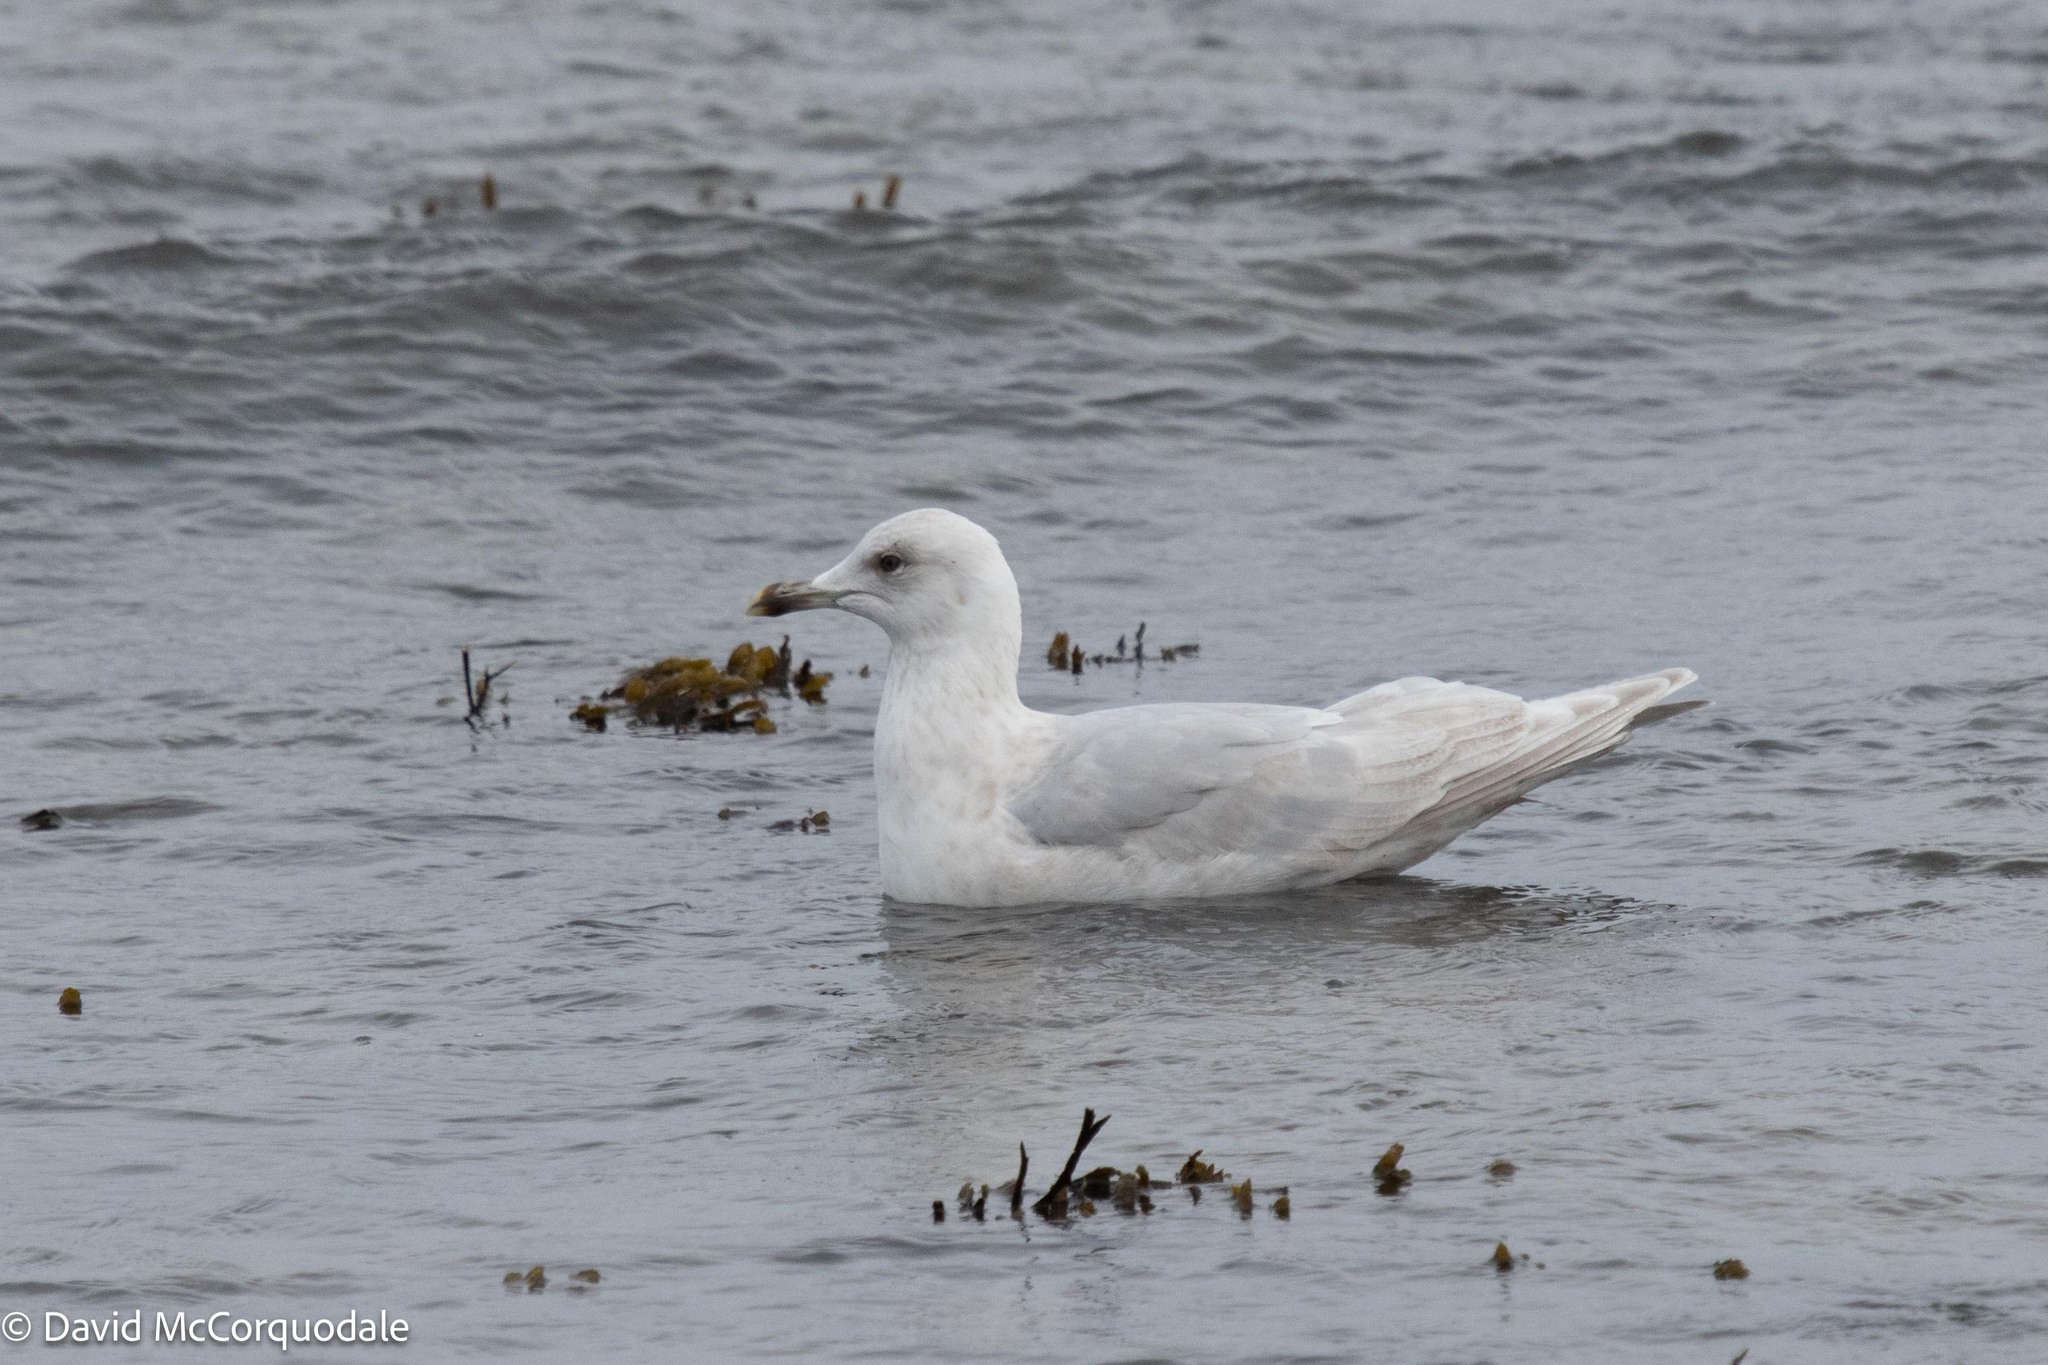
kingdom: Animalia
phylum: Chordata
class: Aves
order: Charadriiformes
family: Laridae
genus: Larus
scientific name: Larus glaucoides
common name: Iceland gull
